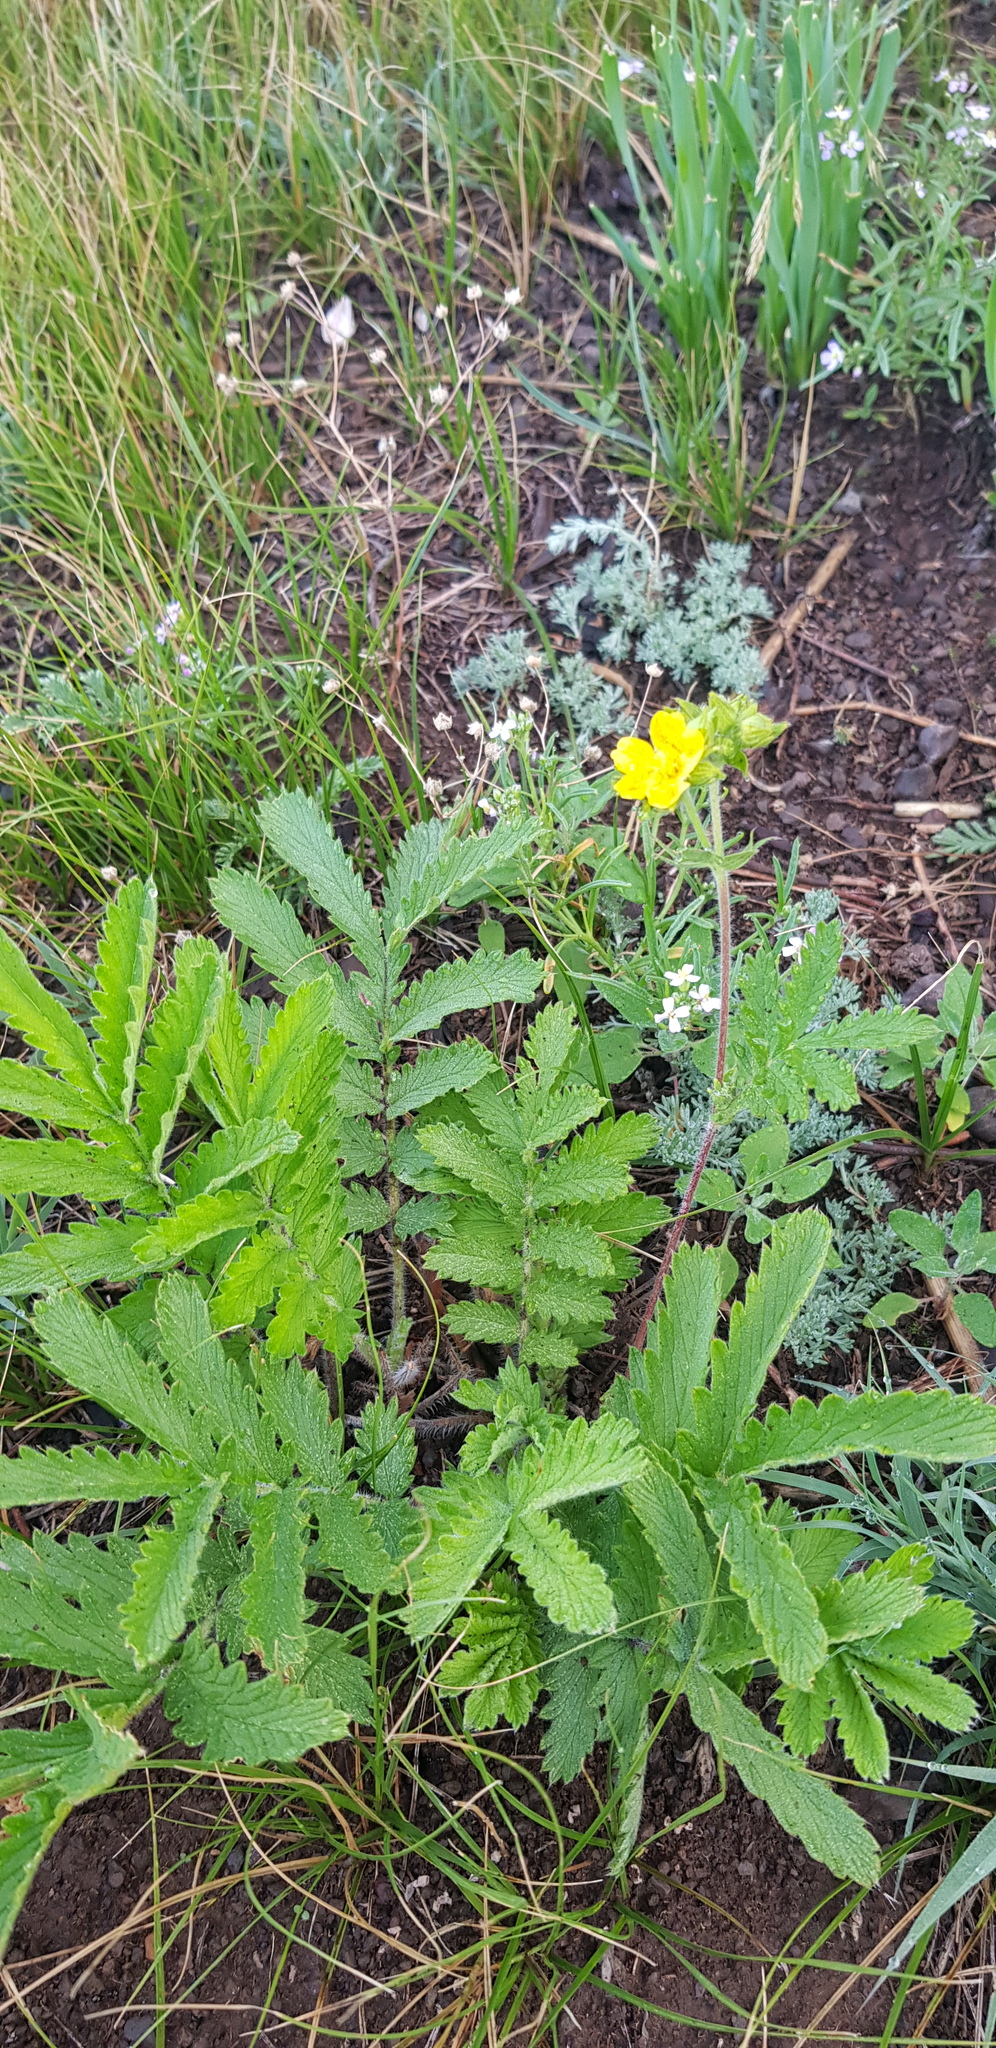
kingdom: Plantae
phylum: Tracheophyta
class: Magnoliopsida
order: Rosales
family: Rosaceae
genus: Potentilla
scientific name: Potentilla tanacetifolia
